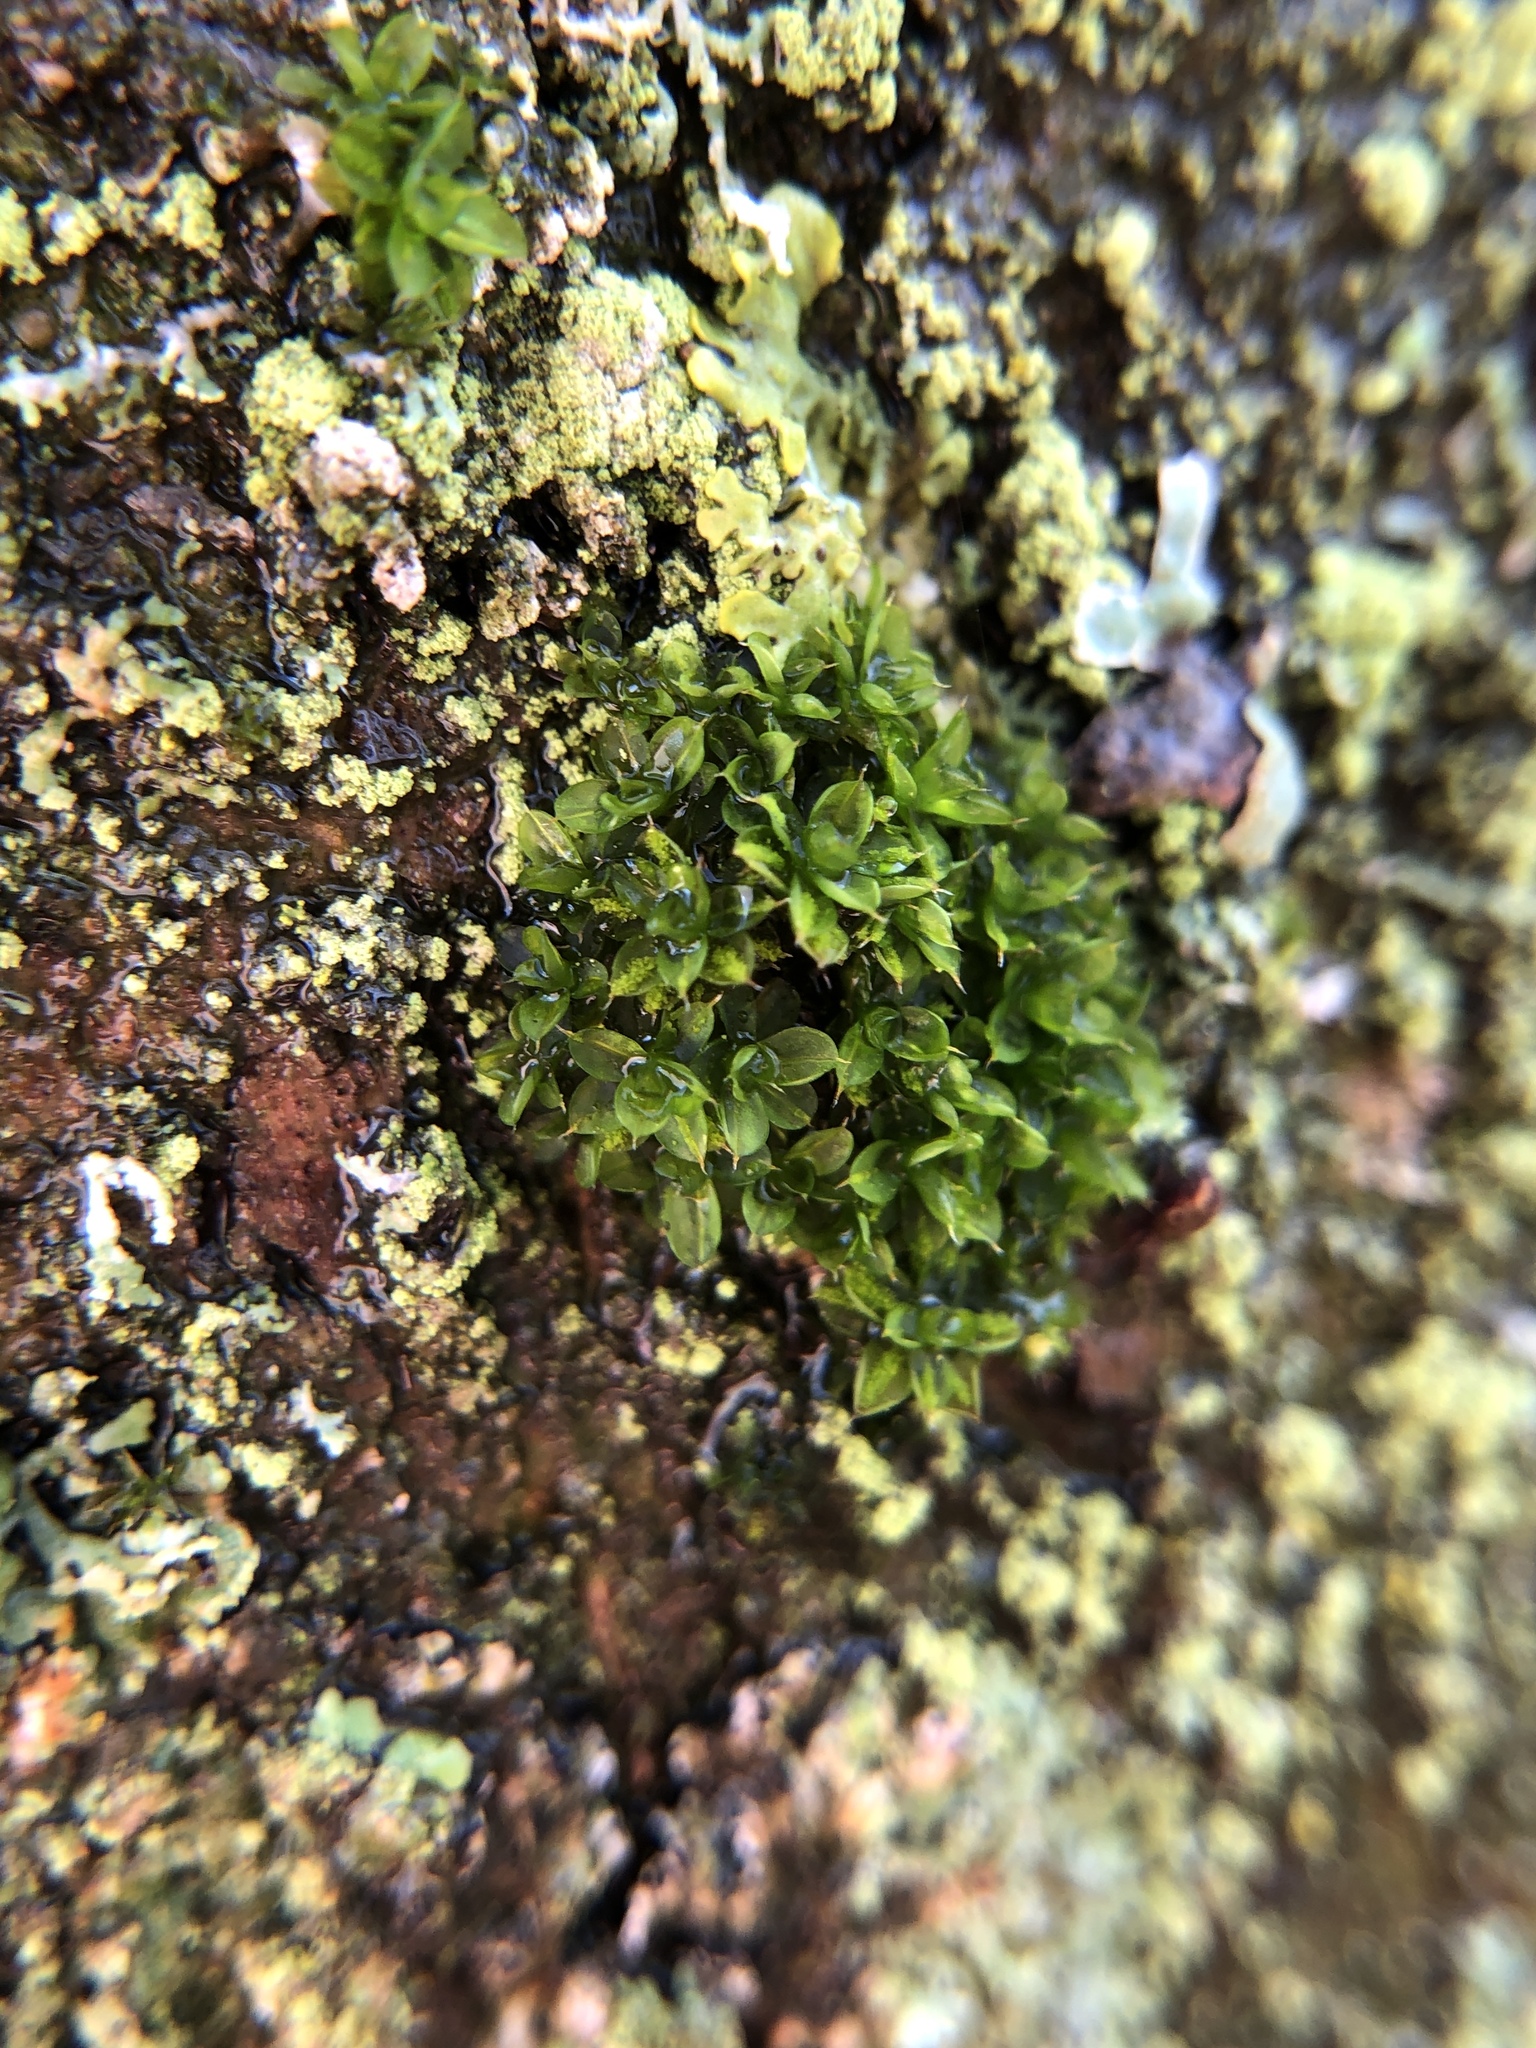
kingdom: Plantae
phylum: Bryophyta
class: Bryopsida
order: Pottiales
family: Pottiaceae
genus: Syntrichia
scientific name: Syntrichia papillosa
